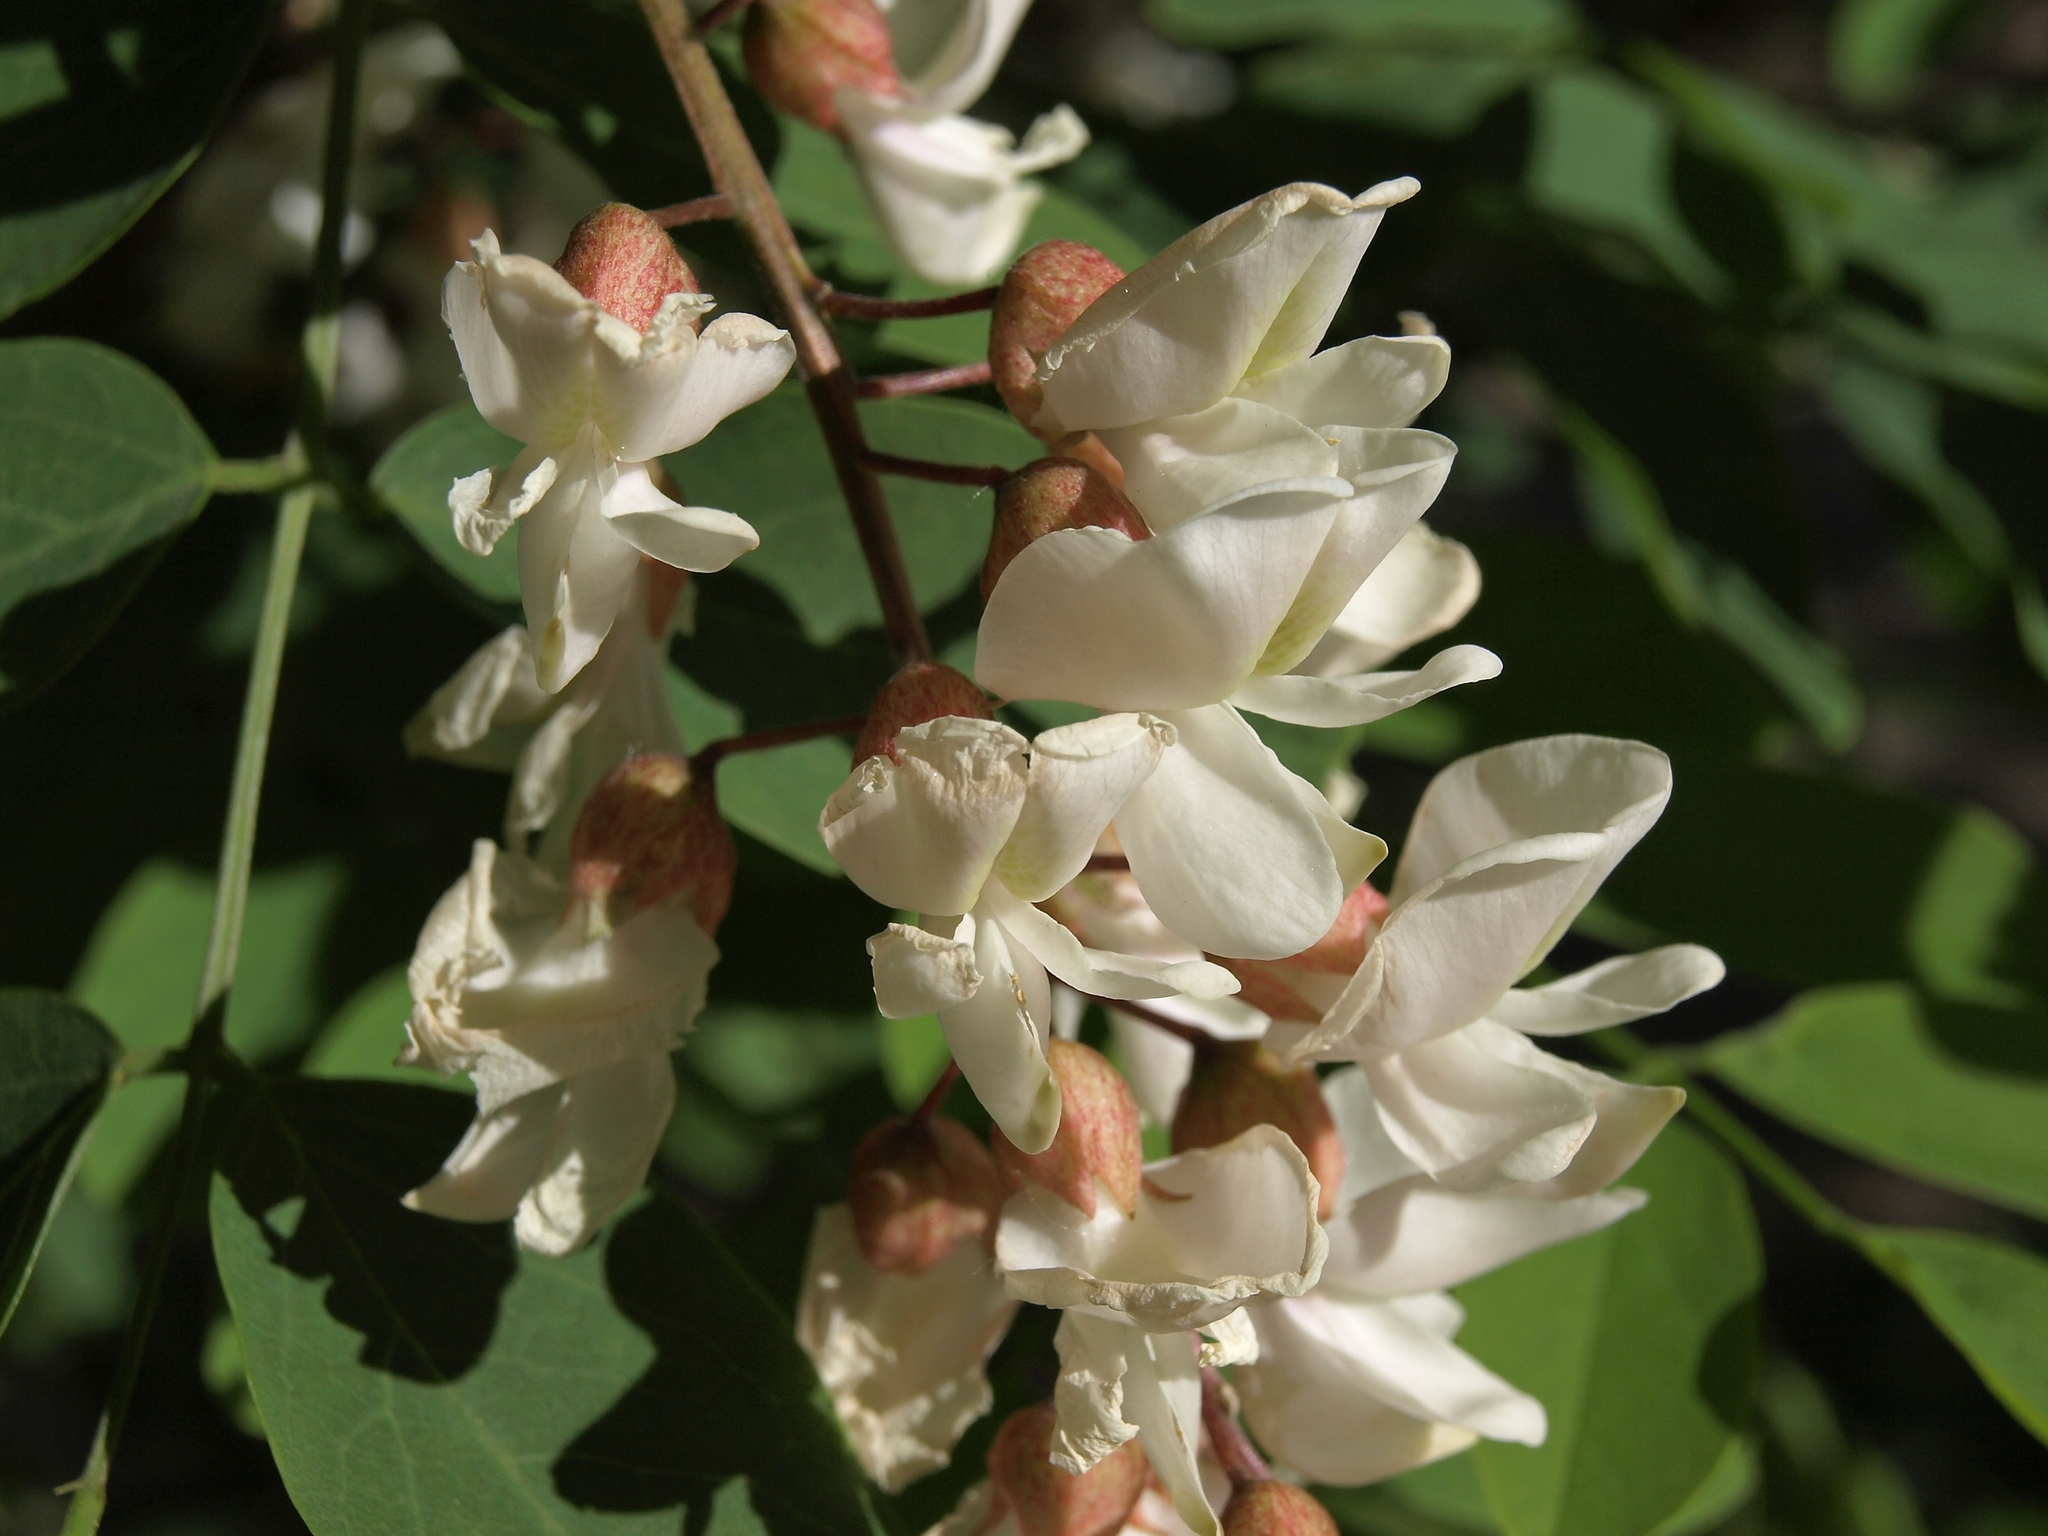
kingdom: Plantae
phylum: Tracheophyta
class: Magnoliopsida
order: Fabales
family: Fabaceae
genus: Robinia
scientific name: Robinia pseudoacacia
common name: Black locust
